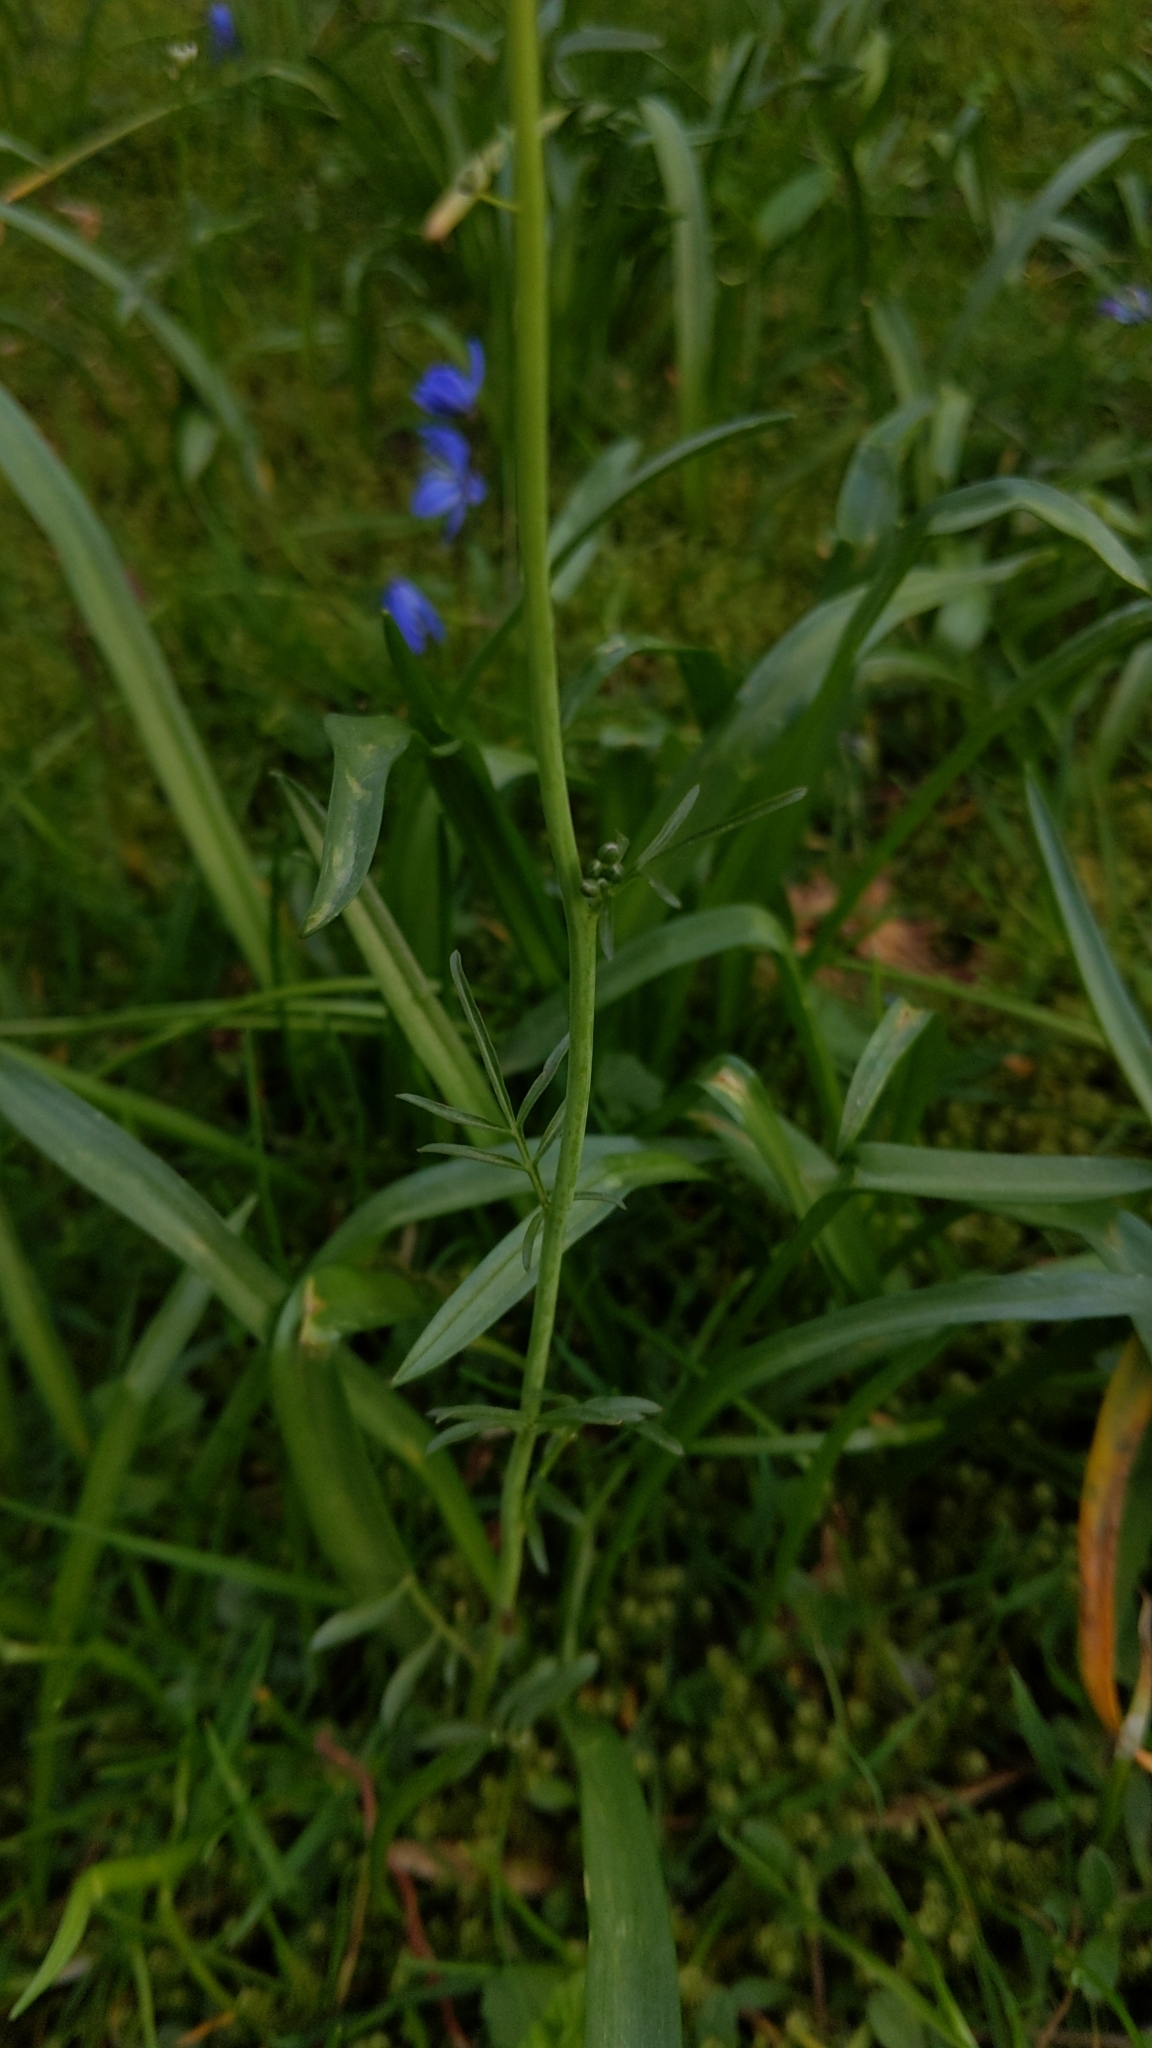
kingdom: Plantae
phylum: Tracheophyta
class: Magnoliopsida
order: Brassicales
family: Brassicaceae
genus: Cardamine
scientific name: Cardamine pratensis
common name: Cuckoo flower
